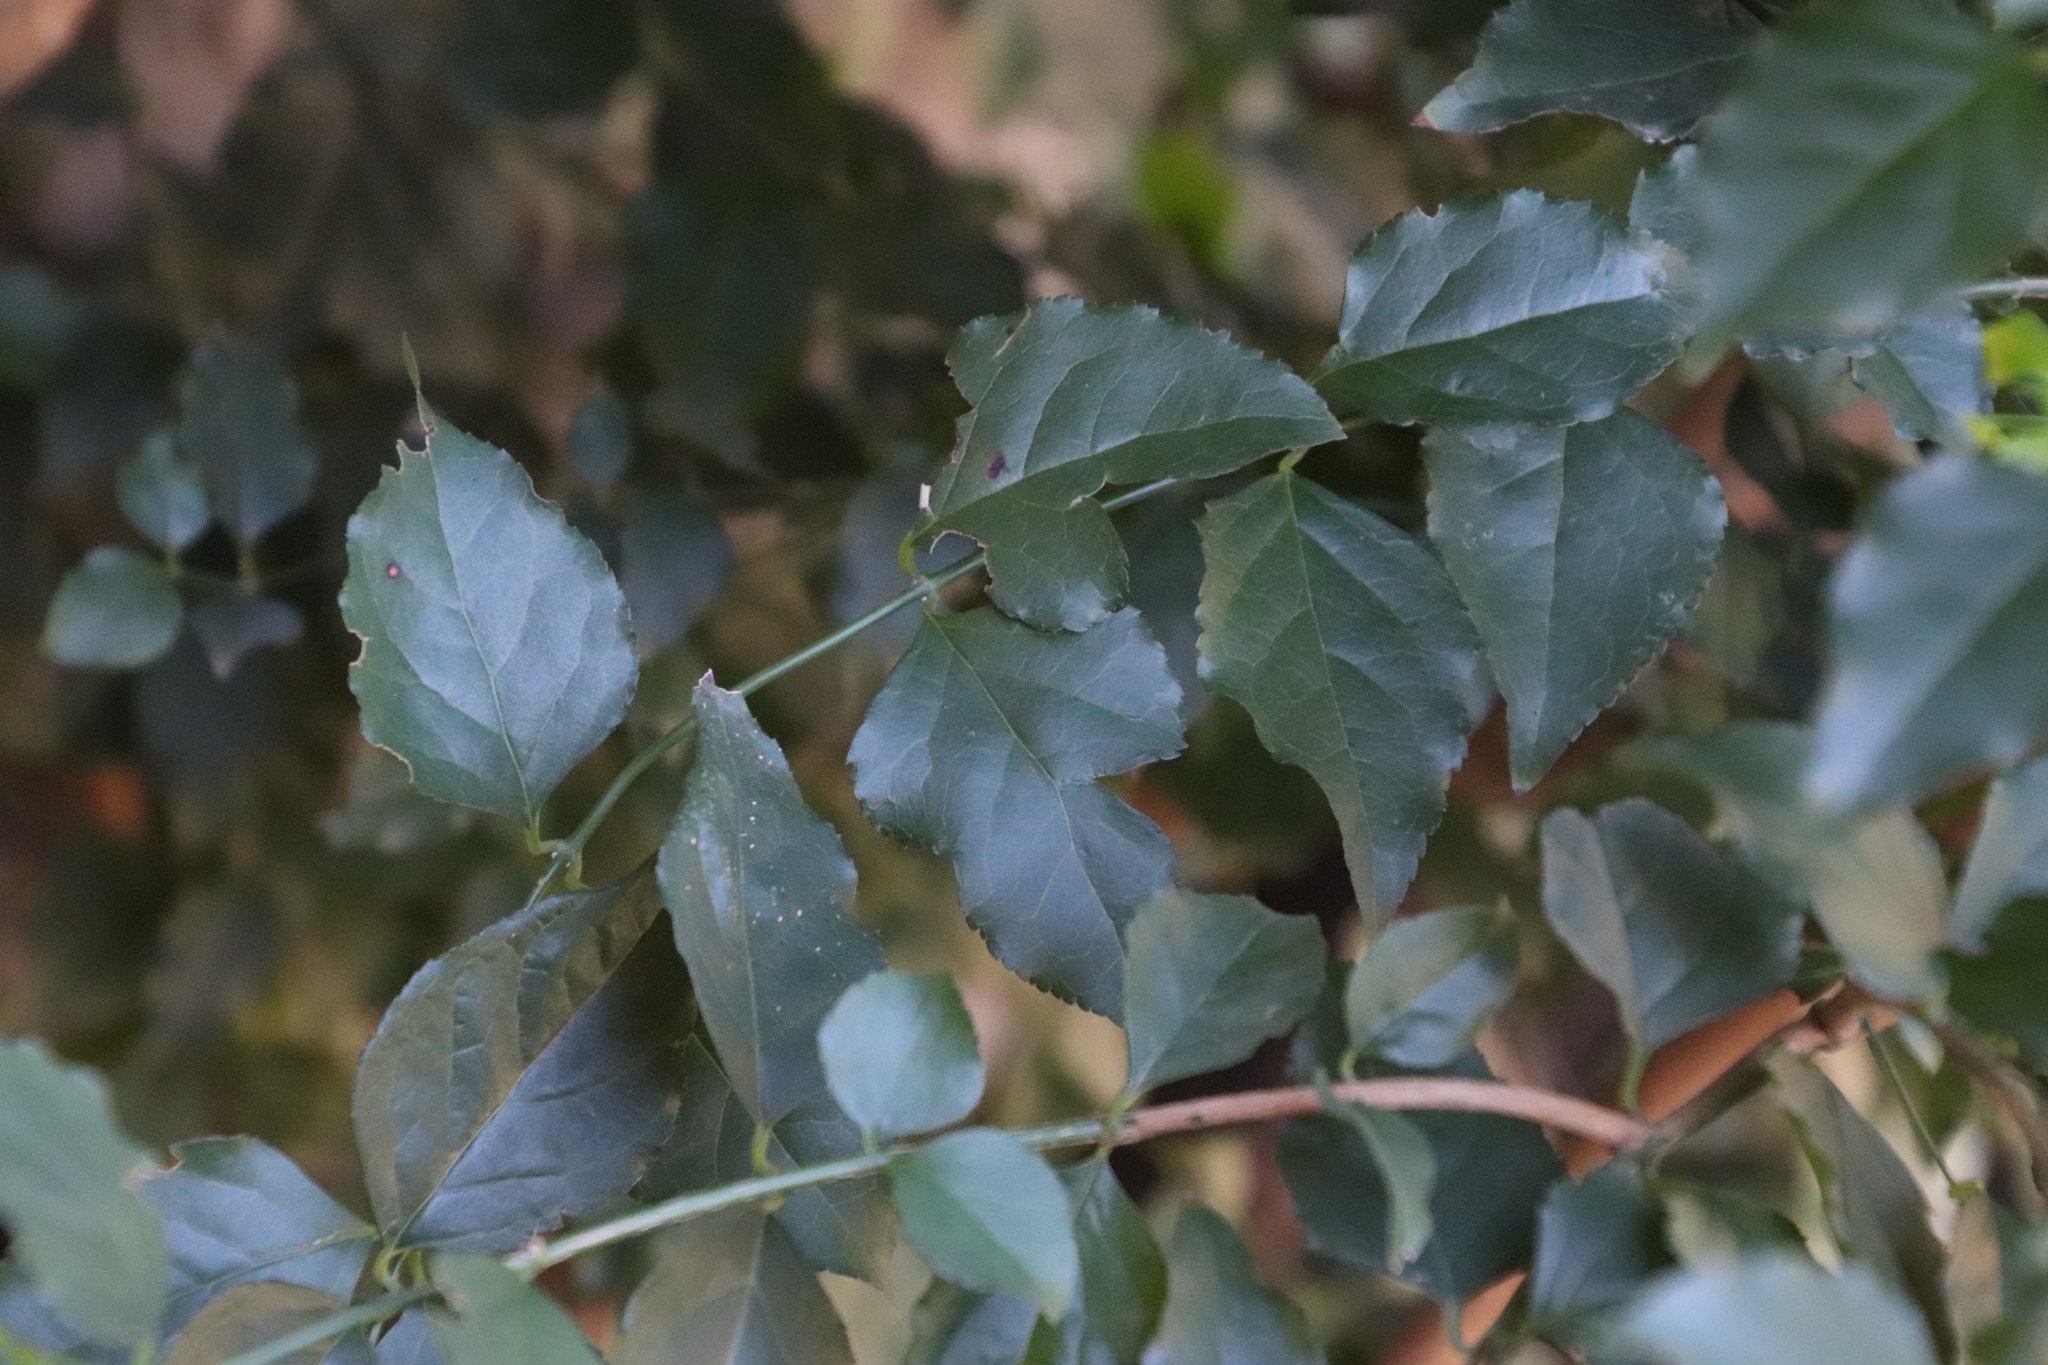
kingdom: Plantae
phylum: Tracheophyta
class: Magnoliopsida
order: Lamiales
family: Stilbaceae
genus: Halleria
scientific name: Halleria lucida
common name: Tree fuschia
